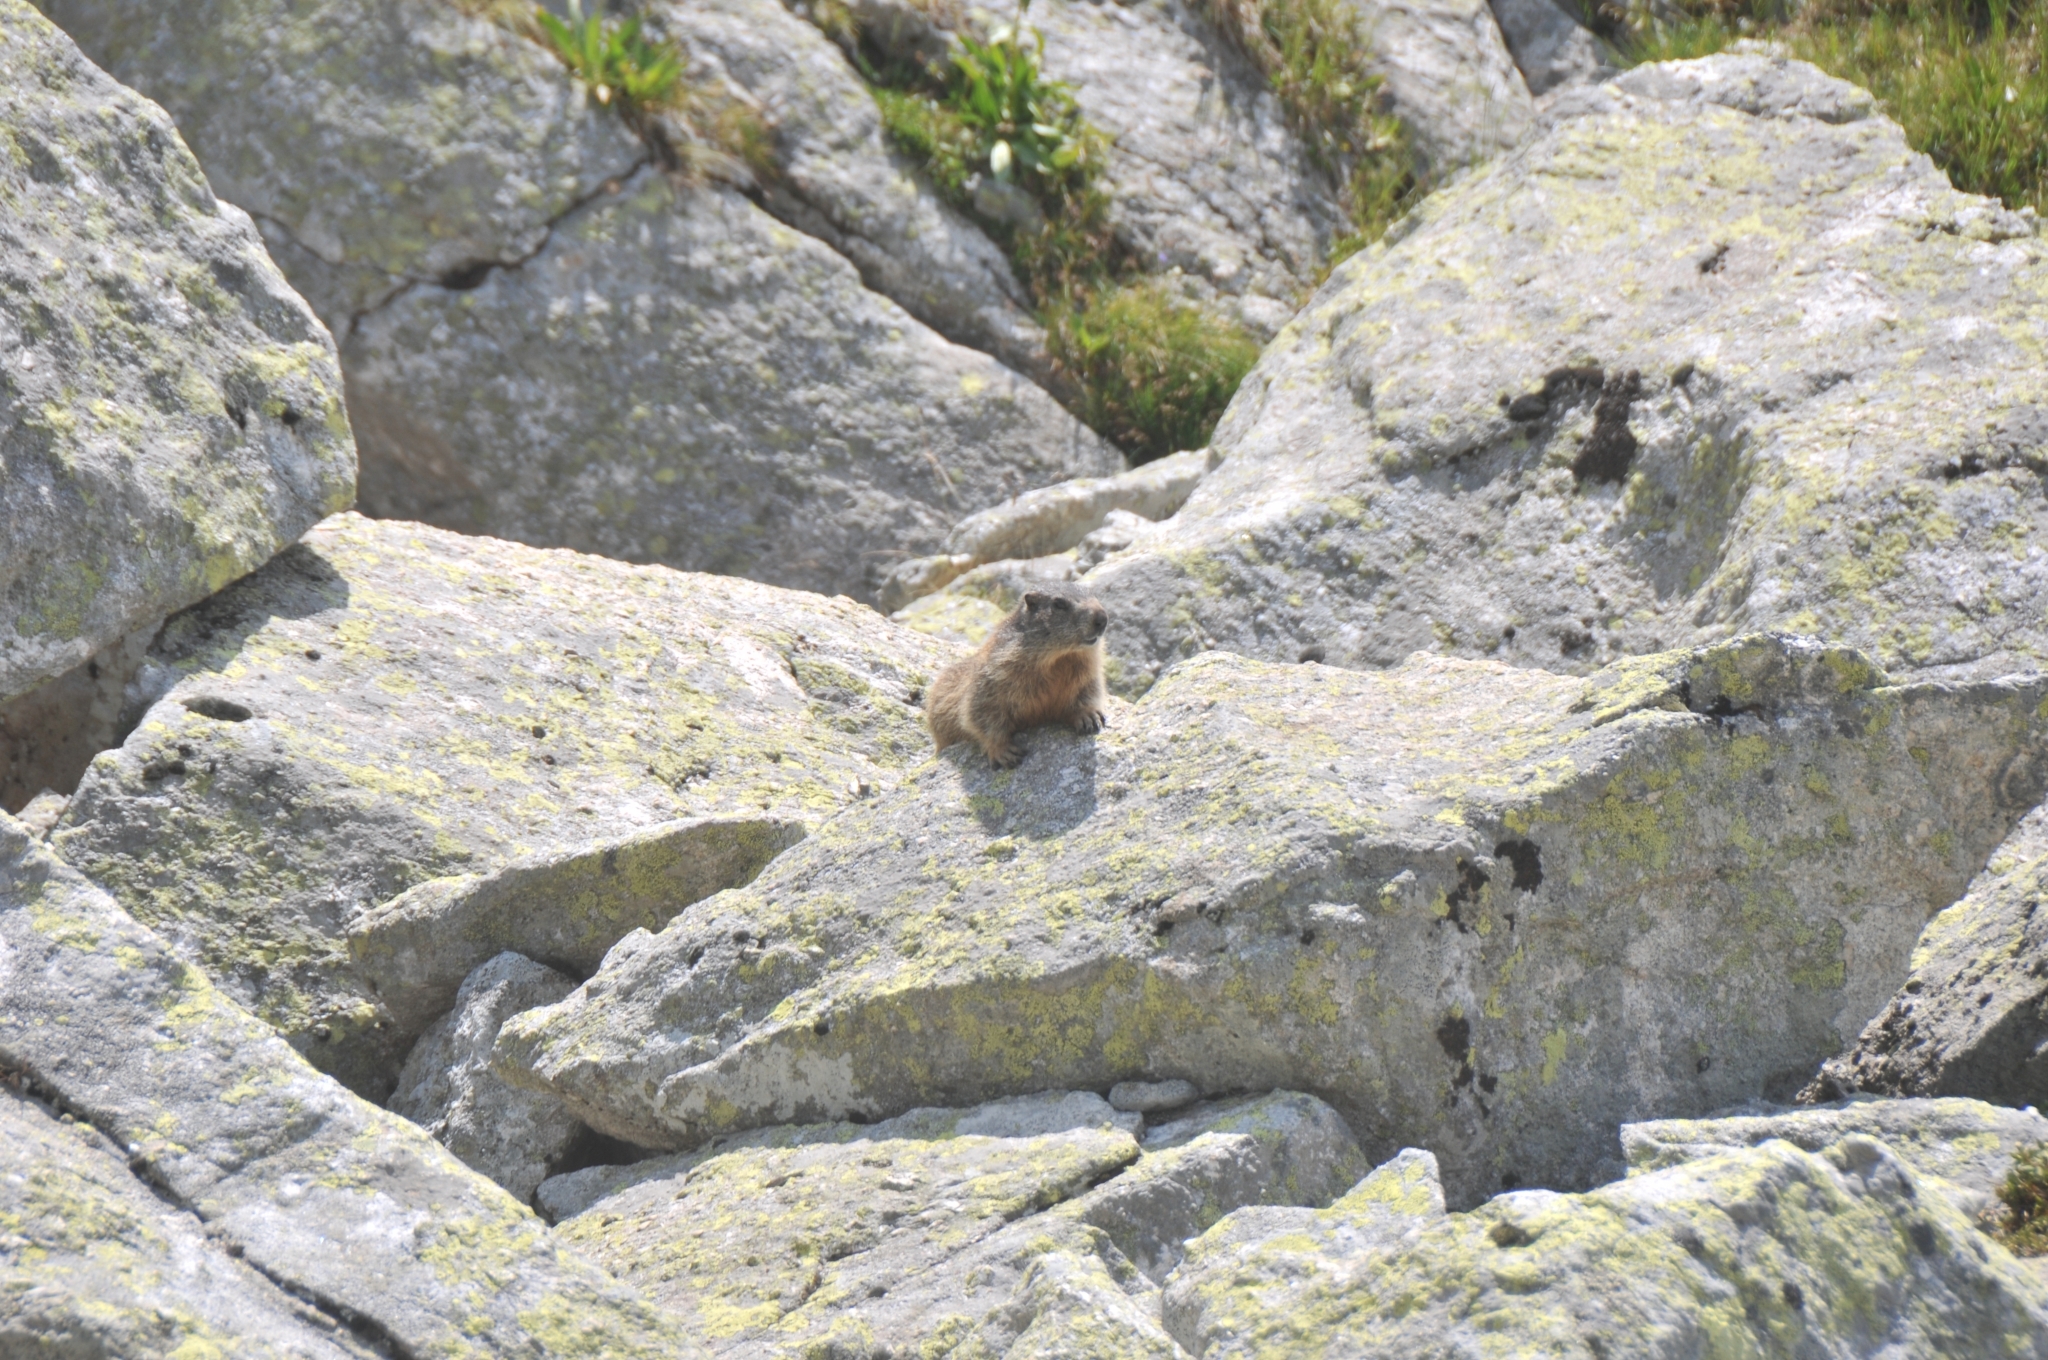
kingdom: Animalia
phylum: Chordata
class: Mammalia
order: Rodentia
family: Sciuridae
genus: Marmota
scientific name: Marmota marmota
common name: Alpine marmot
